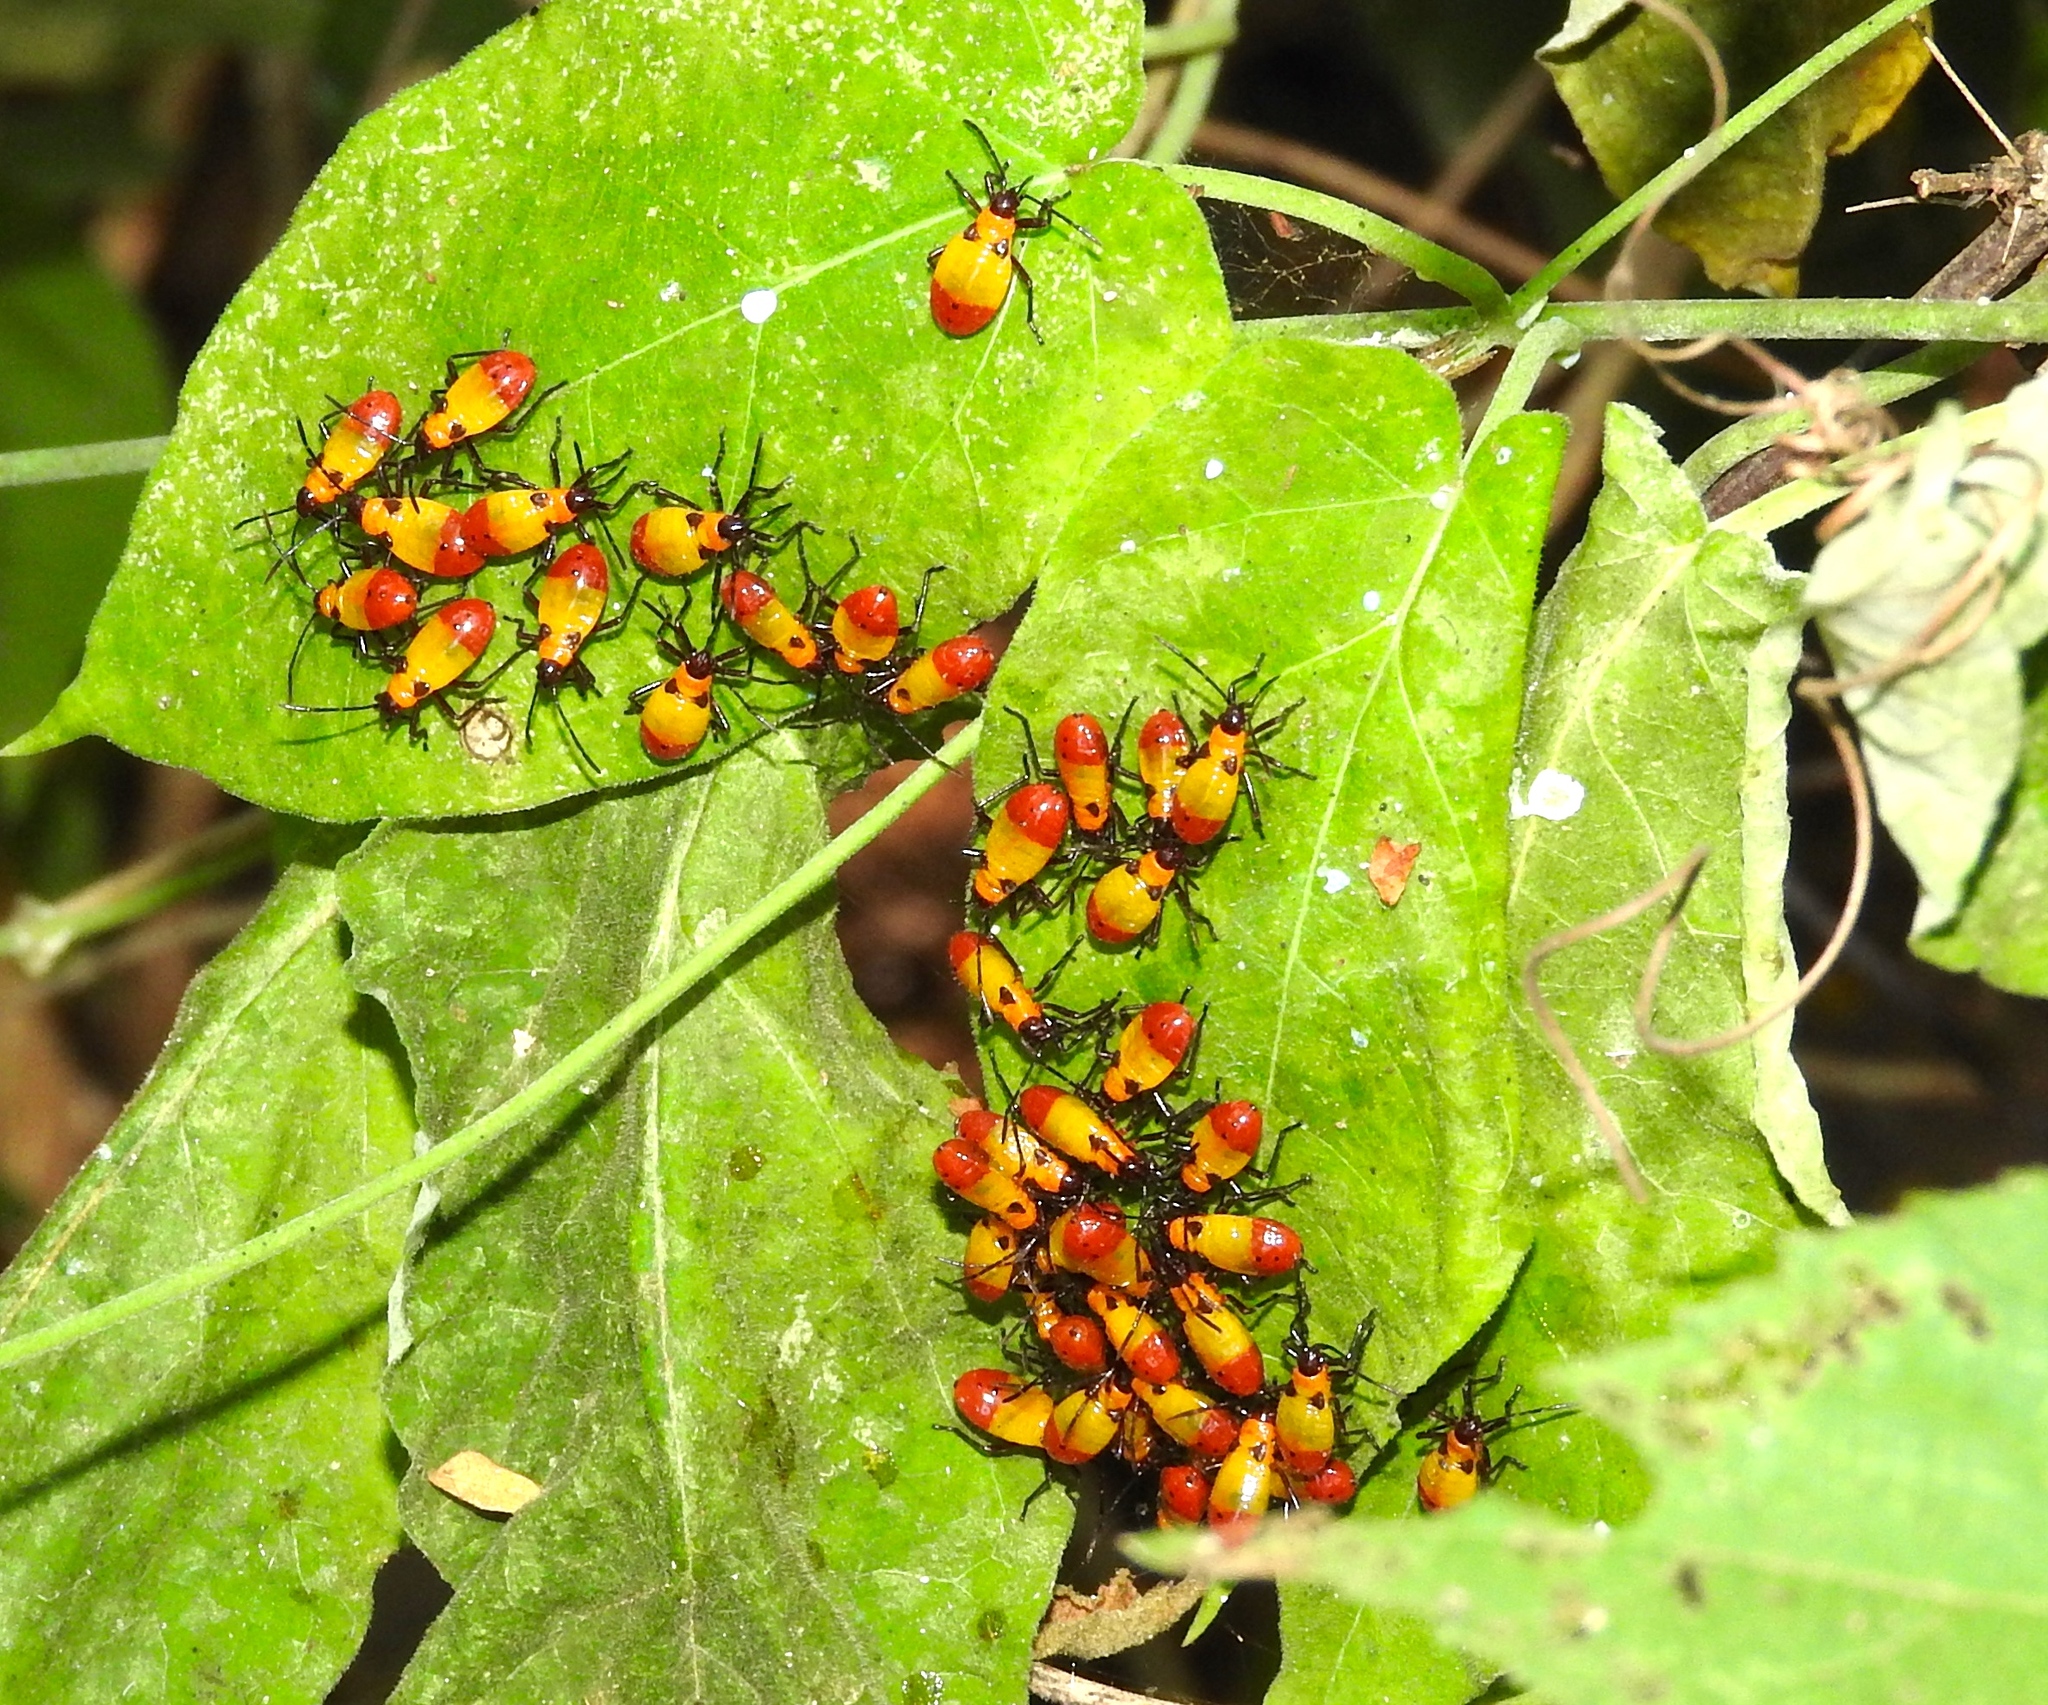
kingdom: Animalia
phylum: Arthropoda
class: Insecta
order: Hemiptera
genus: Erythrischius
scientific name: Erythrischius
